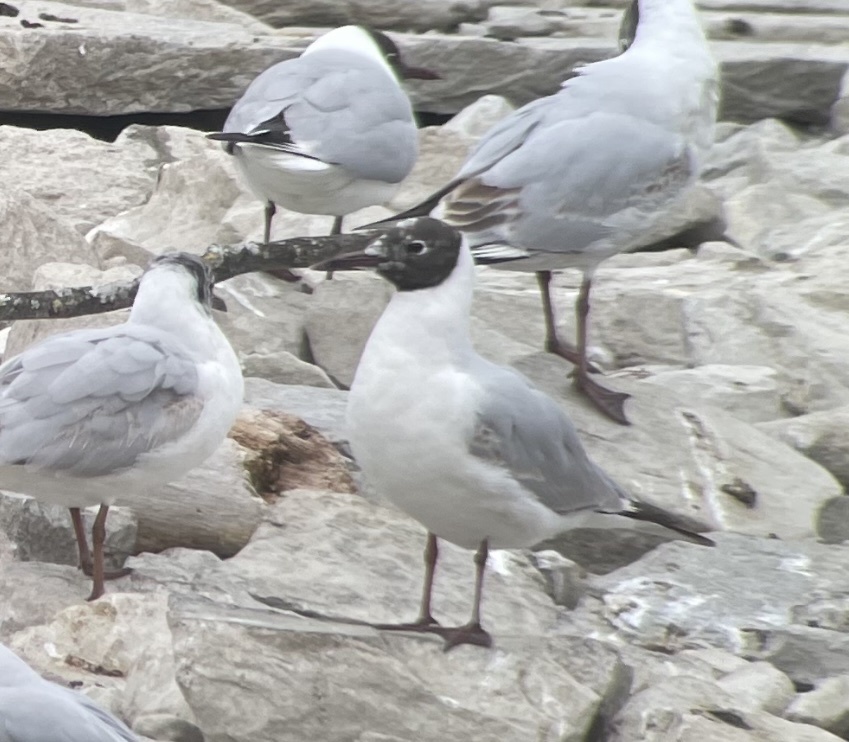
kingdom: Animalia
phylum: Chordata
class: Aves
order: Charadriiformes
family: Laridae
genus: Chroicocephalus
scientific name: Chroicocephalus ridibundus
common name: Black-headed gull
